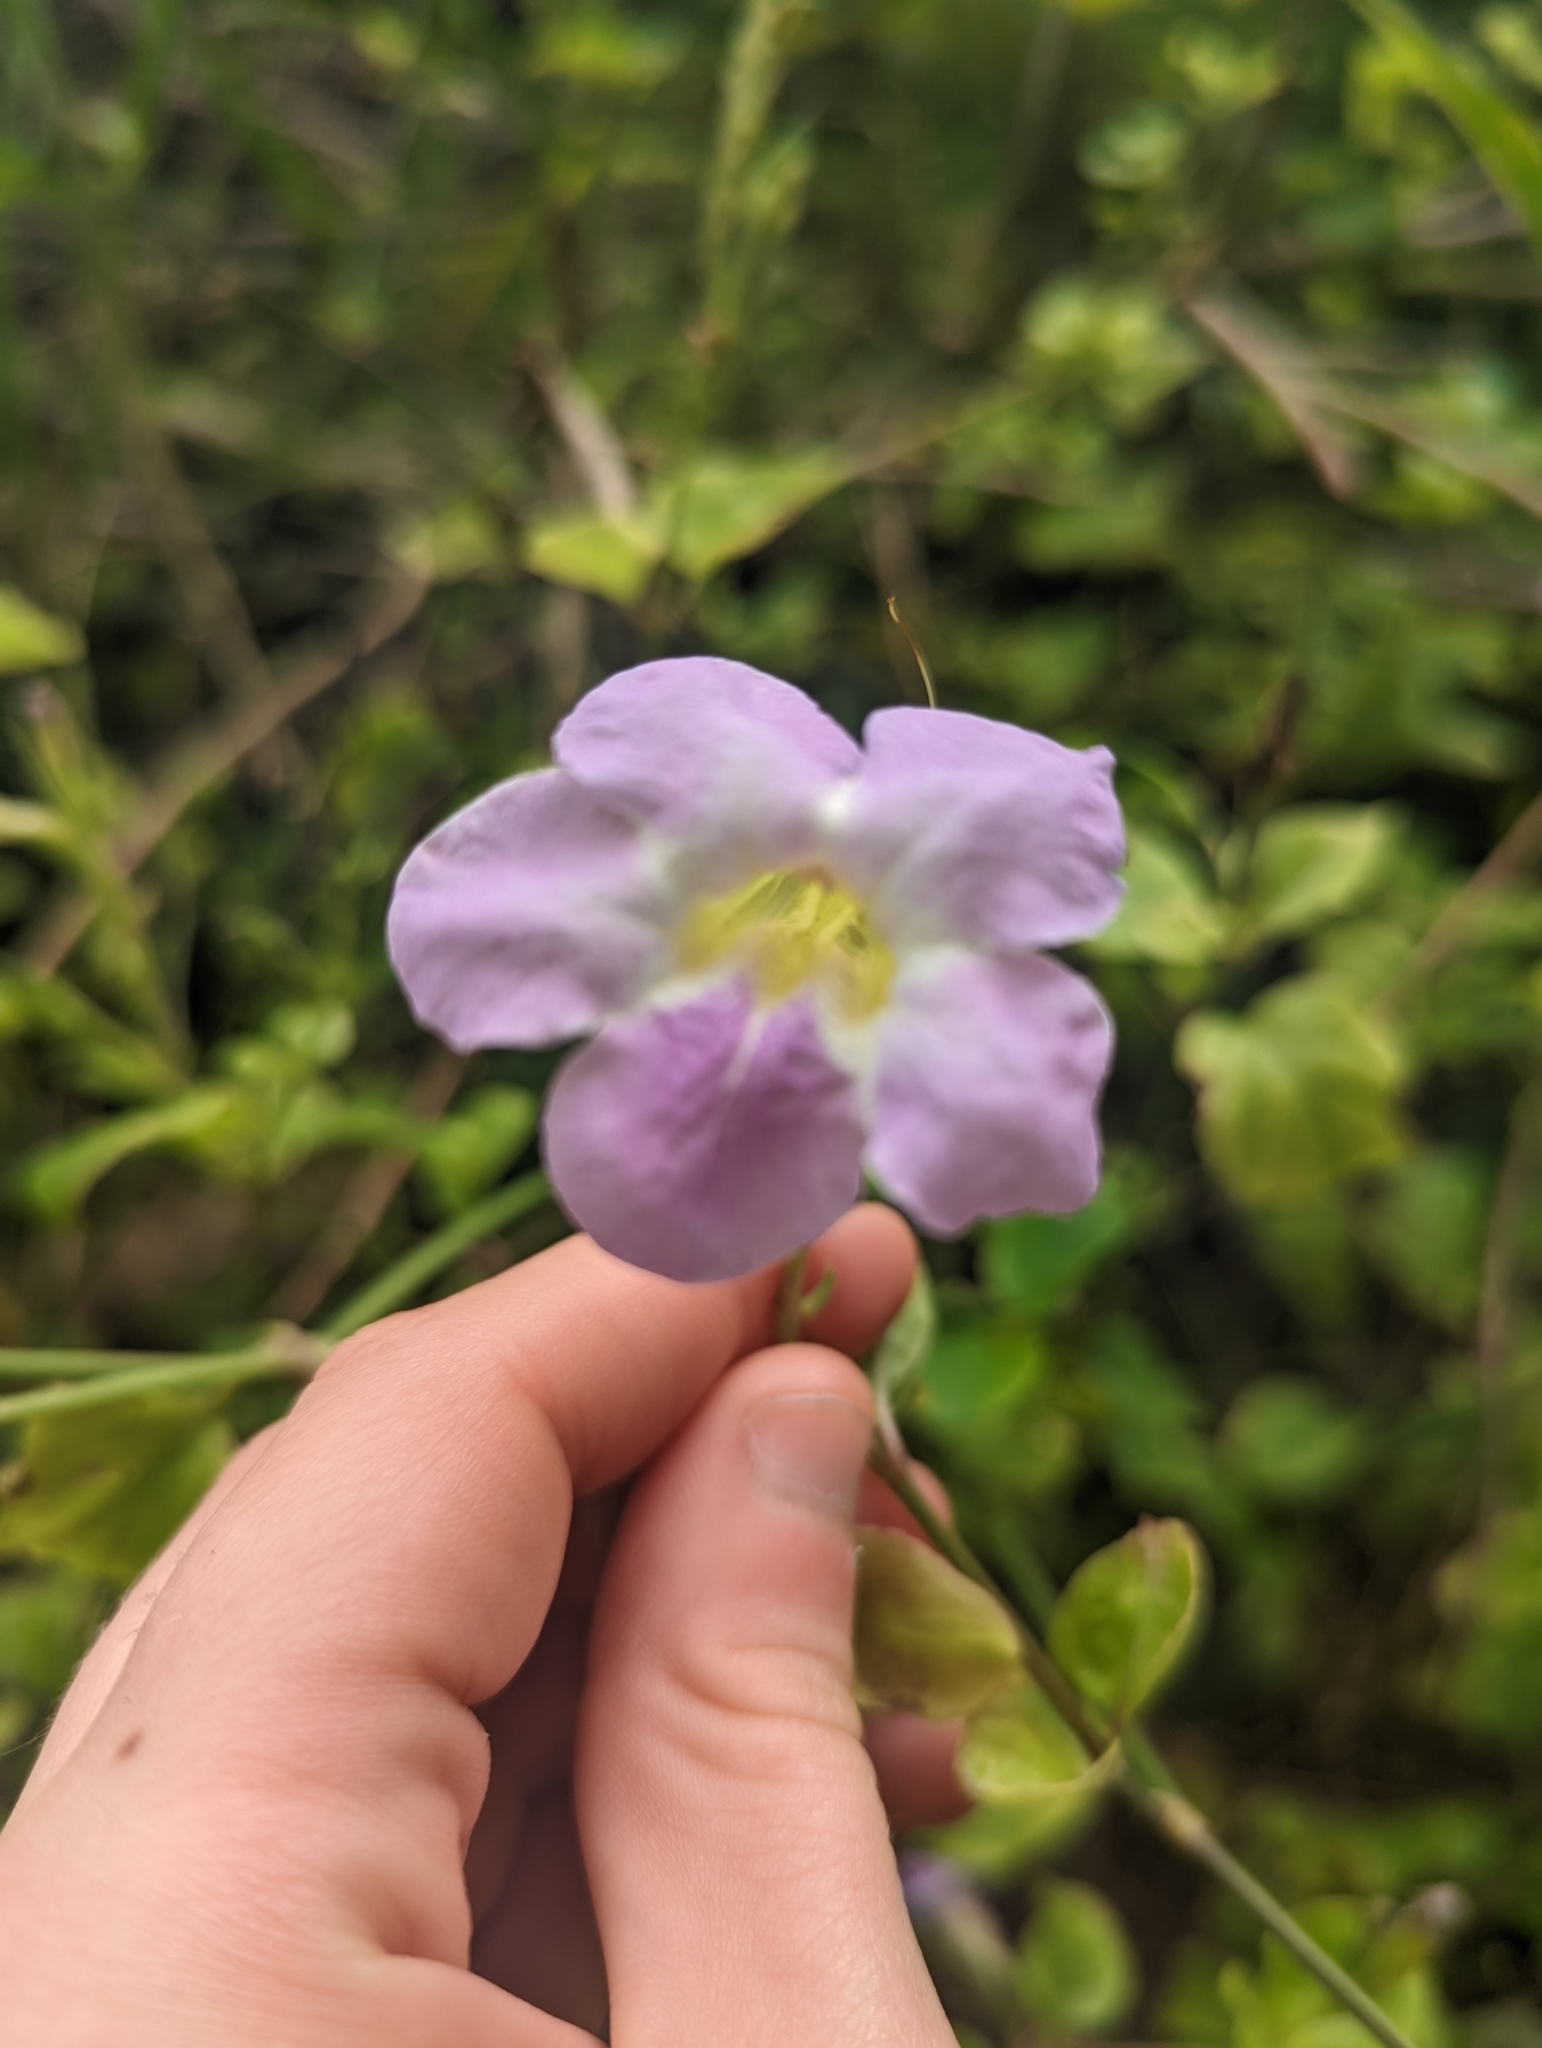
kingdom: Plantae
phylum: Tracheophyta
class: Magnoliopsida
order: Lamiales
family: Acanthaceae
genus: Asystasia
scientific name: Asystasia gangetica
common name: Chinese violet
